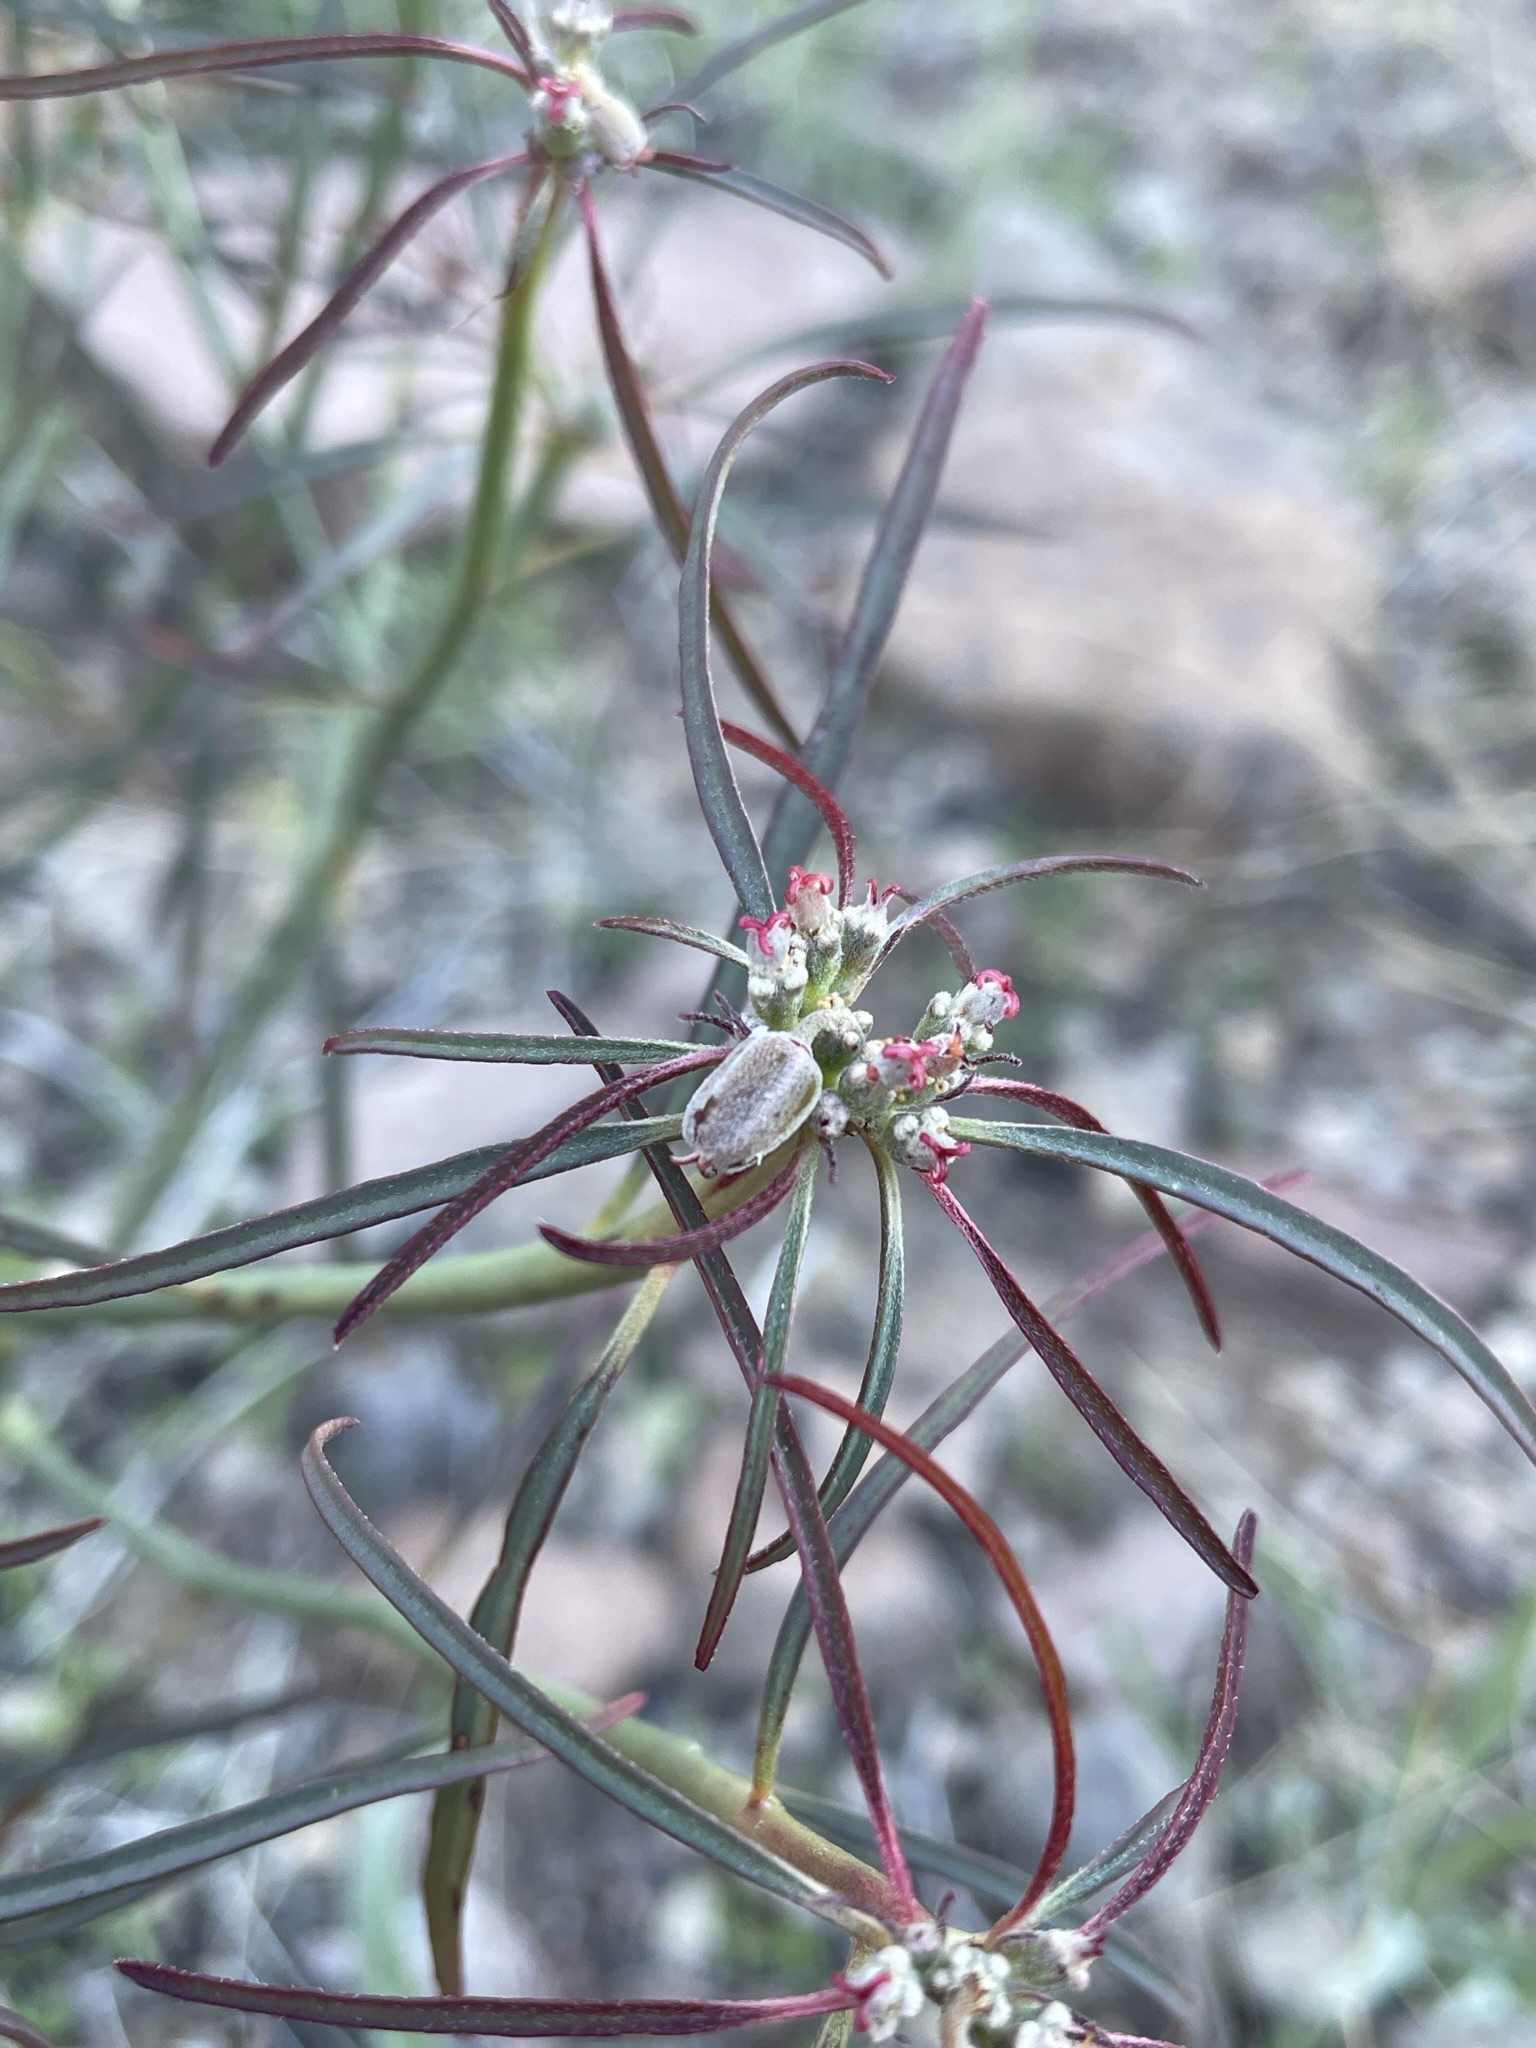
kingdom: Plantae
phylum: Tracheophyta
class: Magnoliopsida
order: Malpighiales
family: Euphorbiaceae
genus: Euphorbia
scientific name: Euphorbia eriantha
